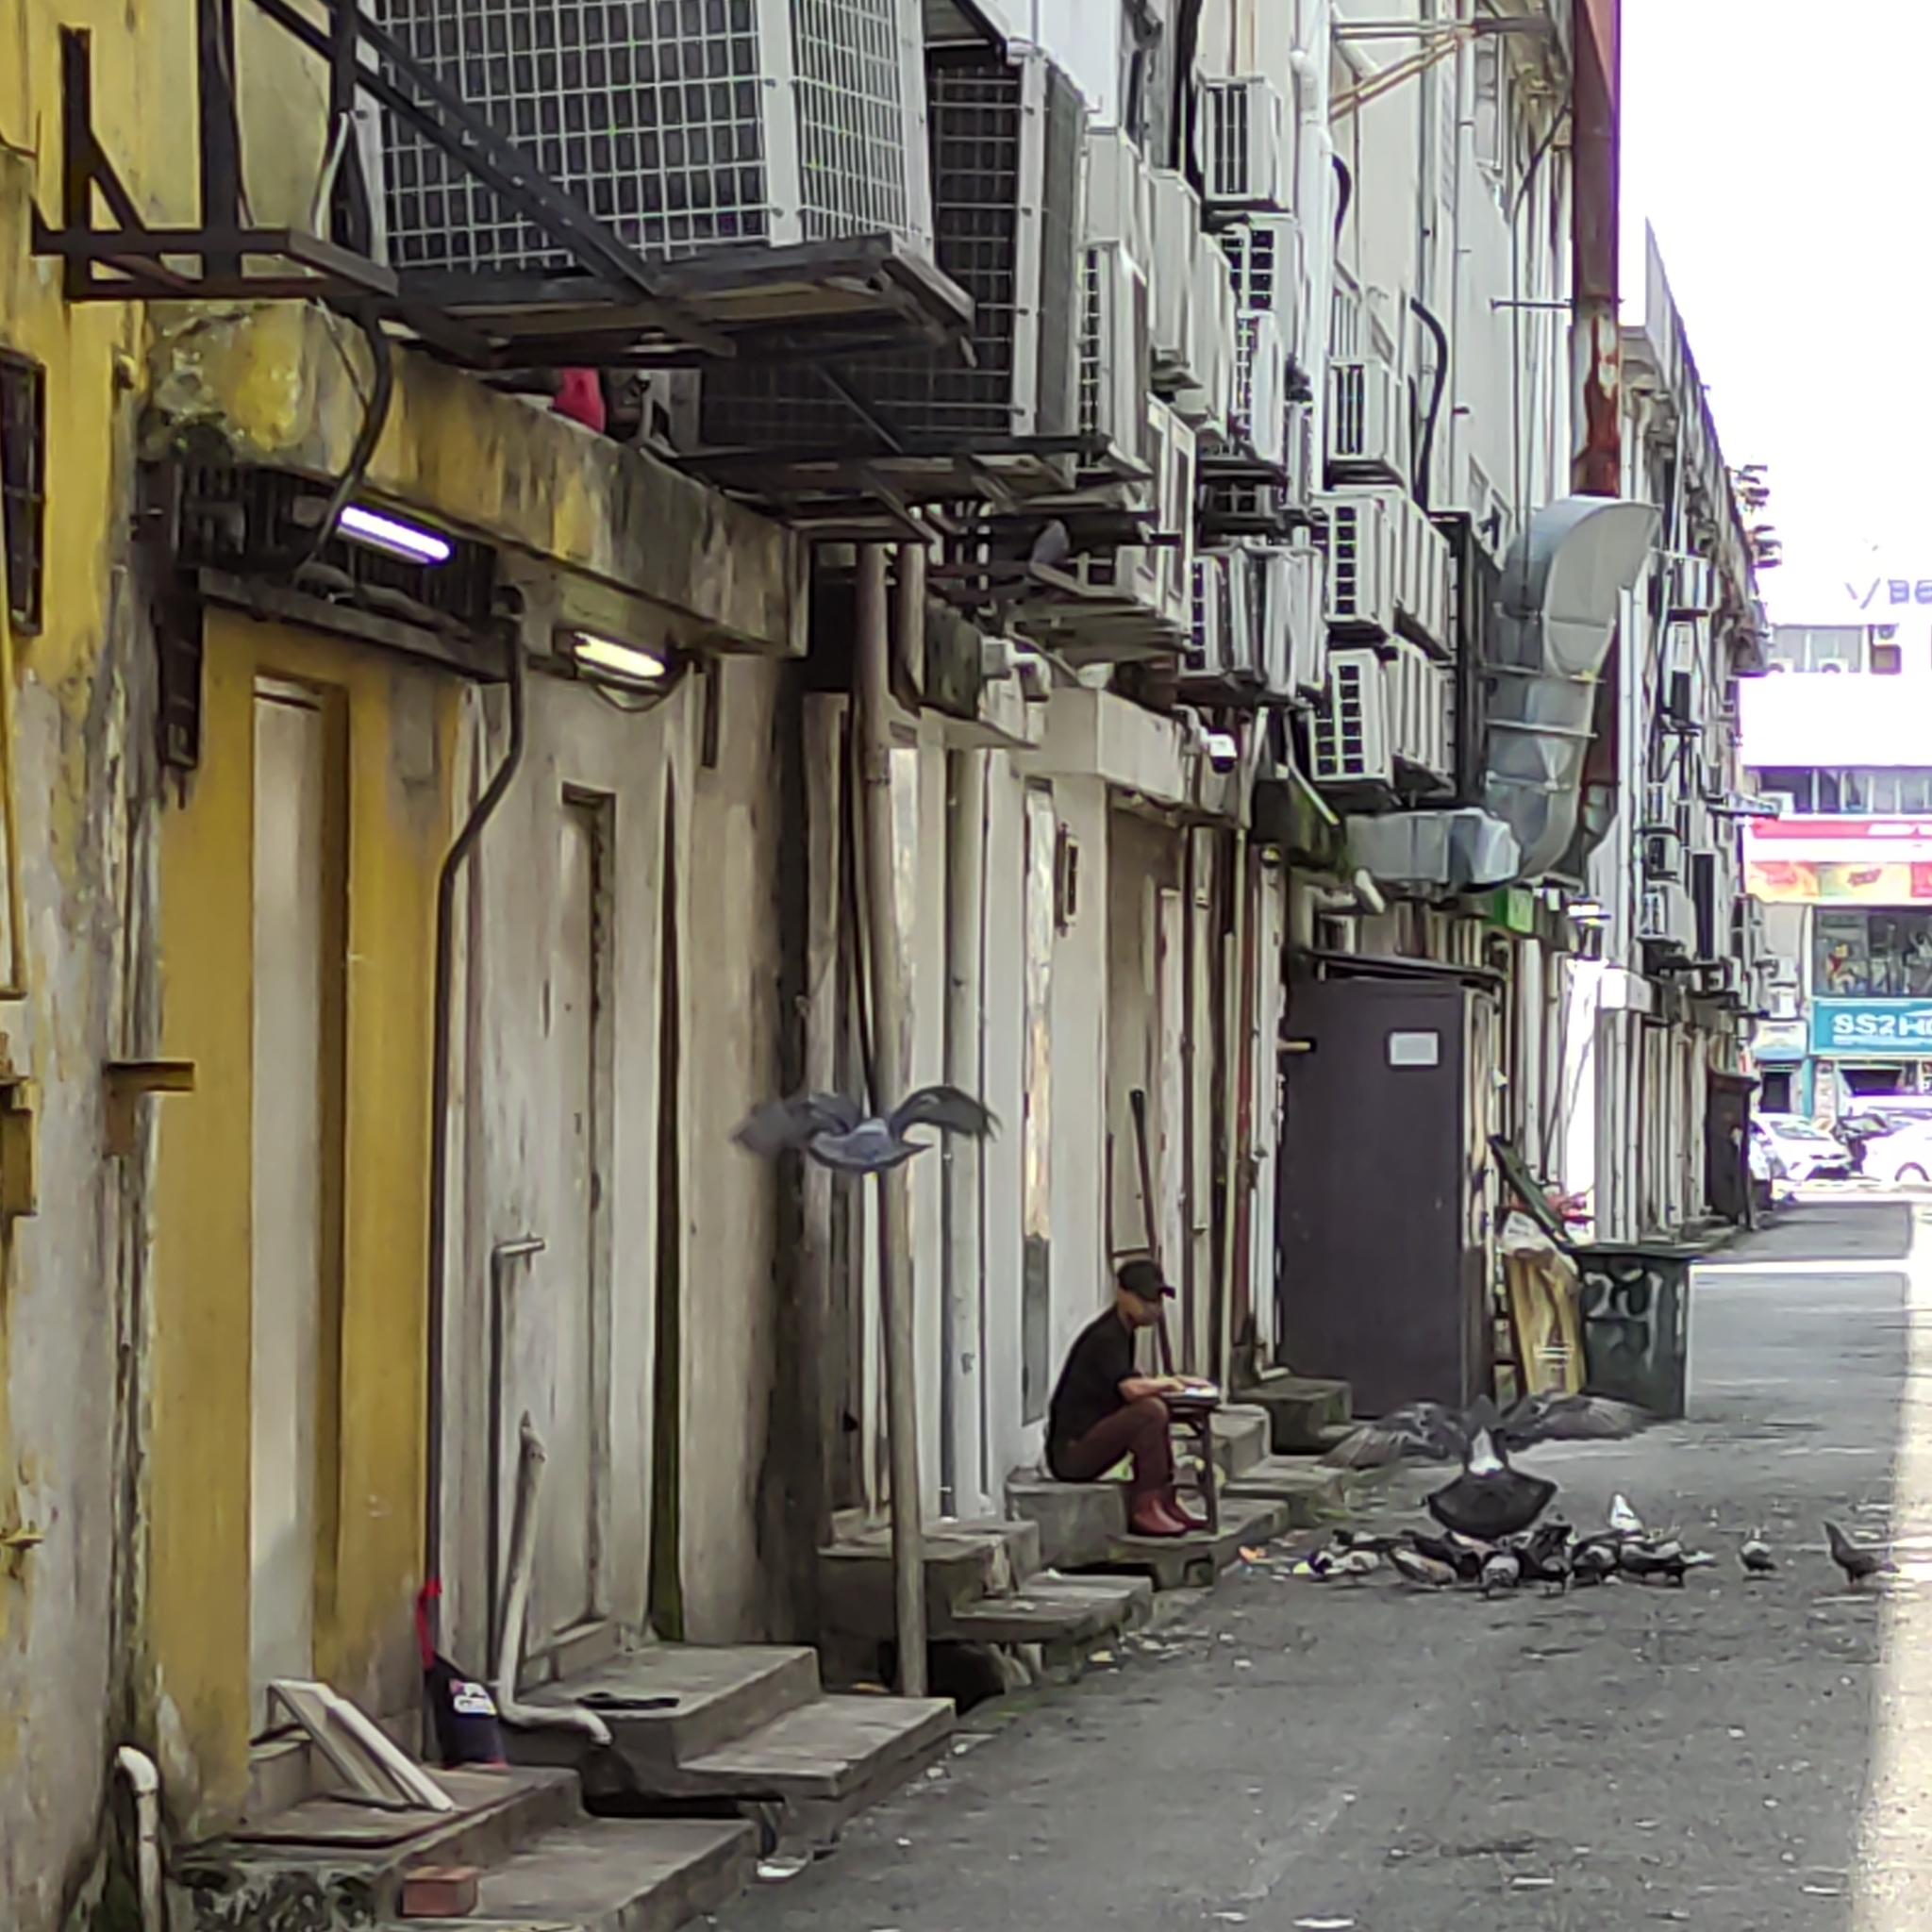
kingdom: Animalia
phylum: Chordata
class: Aves
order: Columbiformes
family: Columbidae
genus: Columba
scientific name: Columba livia
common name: Rock pigeon
